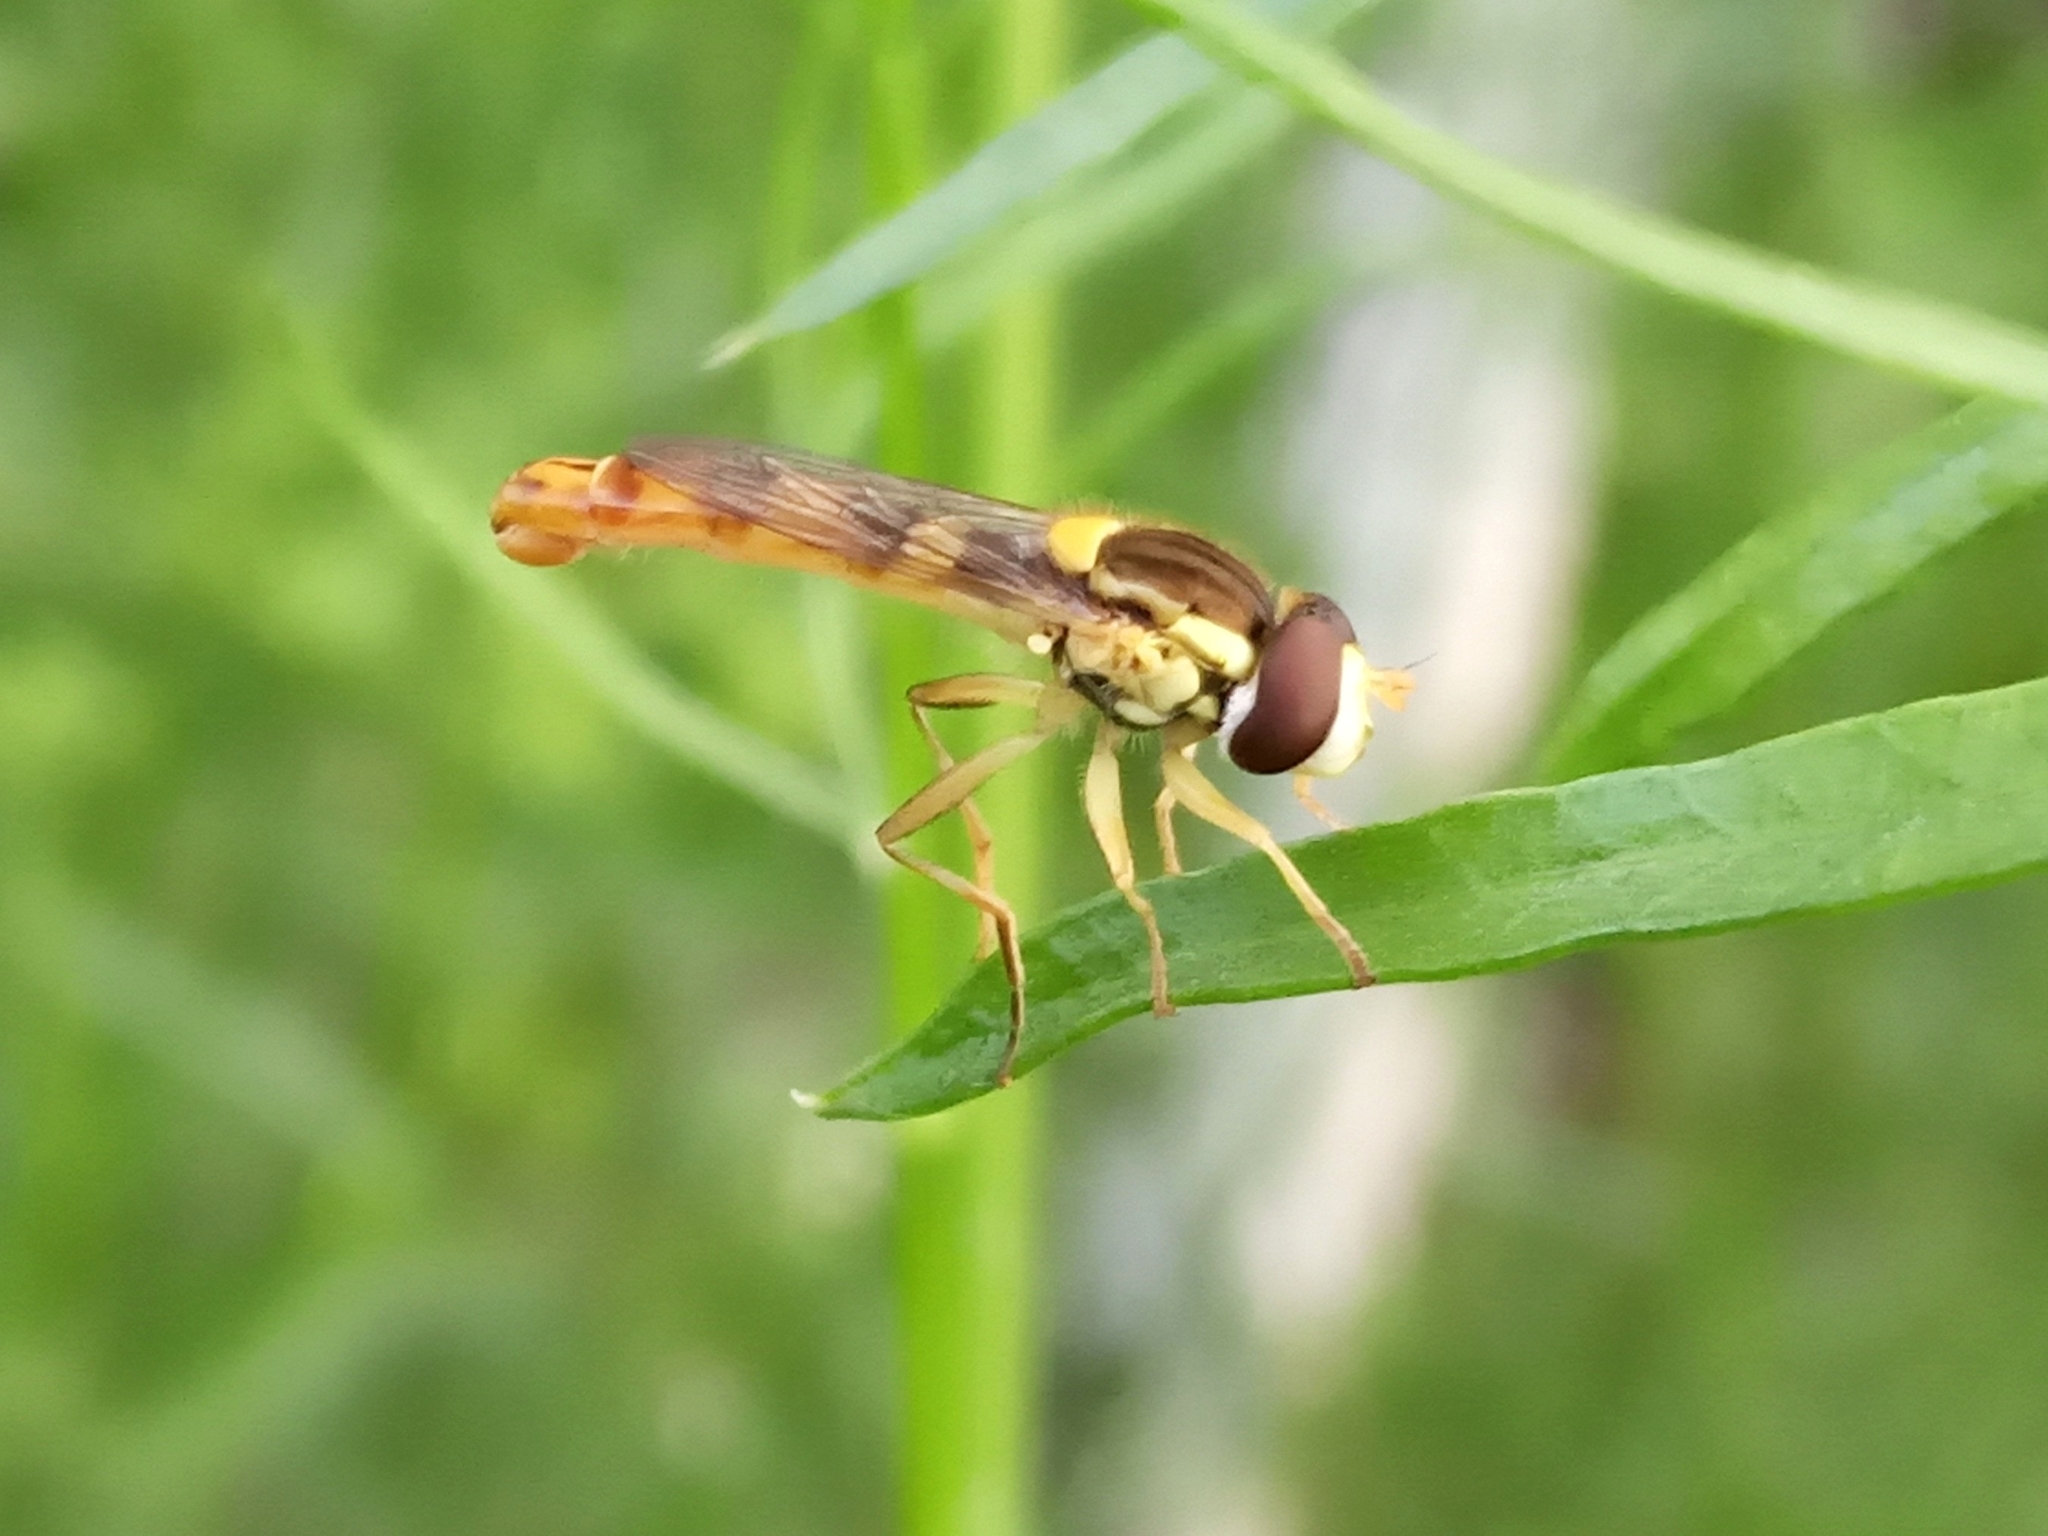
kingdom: Animalia
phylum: Arthropoda
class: Insecta
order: Diptera
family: Syrphidae
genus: Sphaerophoria
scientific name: Sphaerophoria scripta
